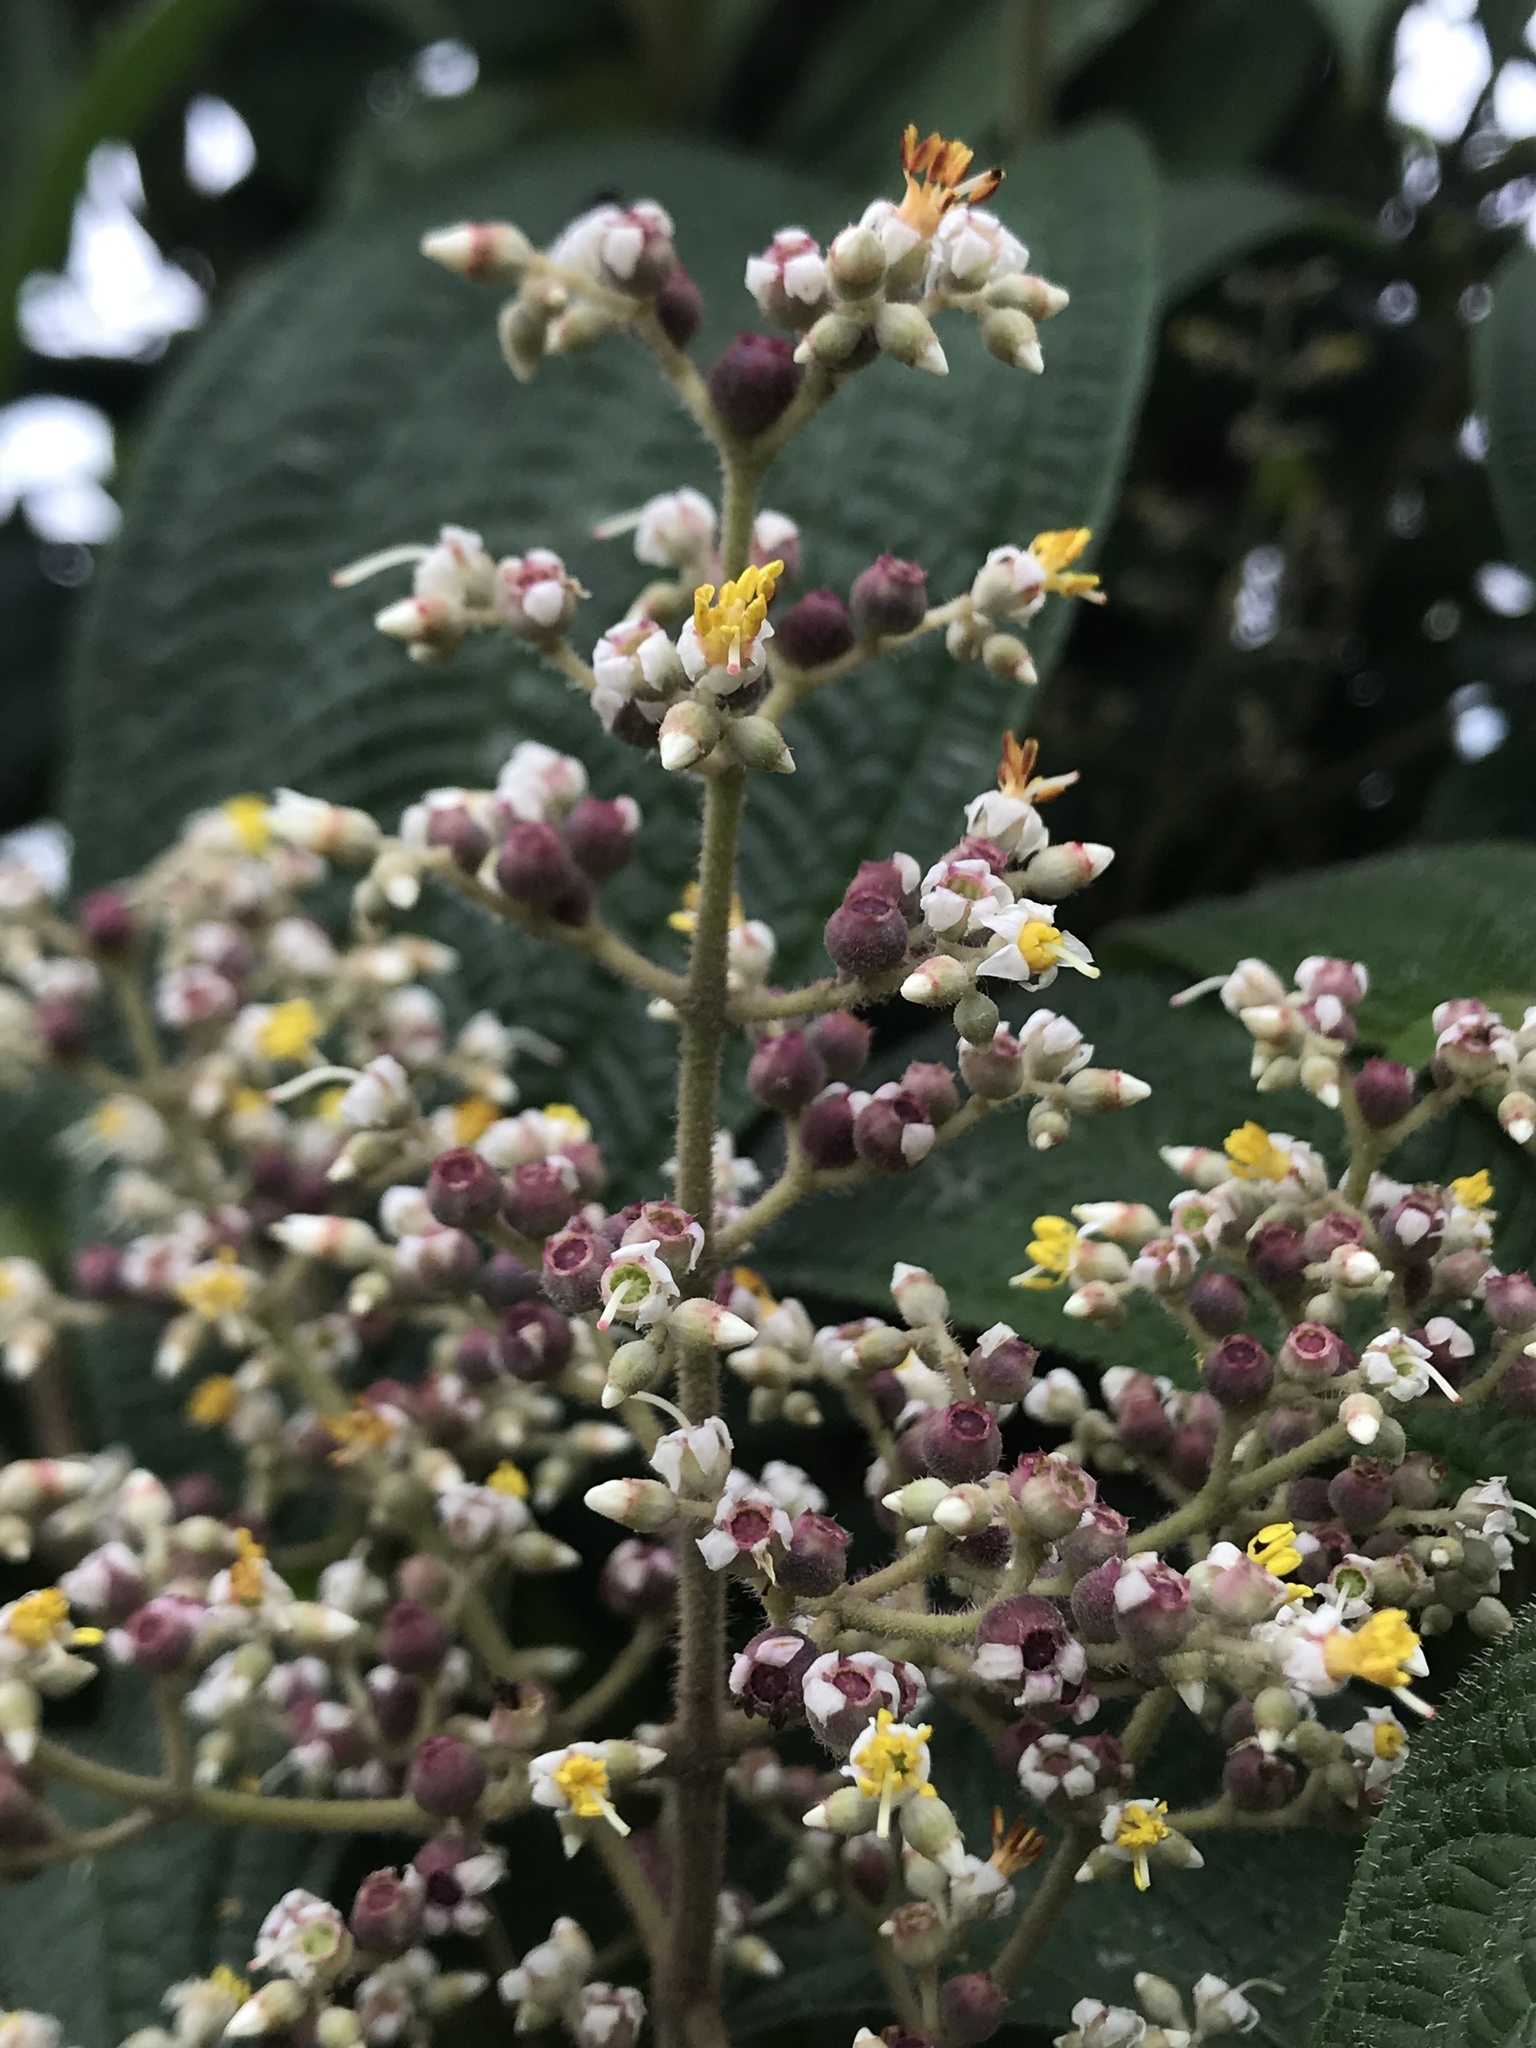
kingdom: Plantae
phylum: Tracheophyta
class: Magnoliopsida
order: Myrtales
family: Melastomataceae
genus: Miconia
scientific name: Miconia subseriata
